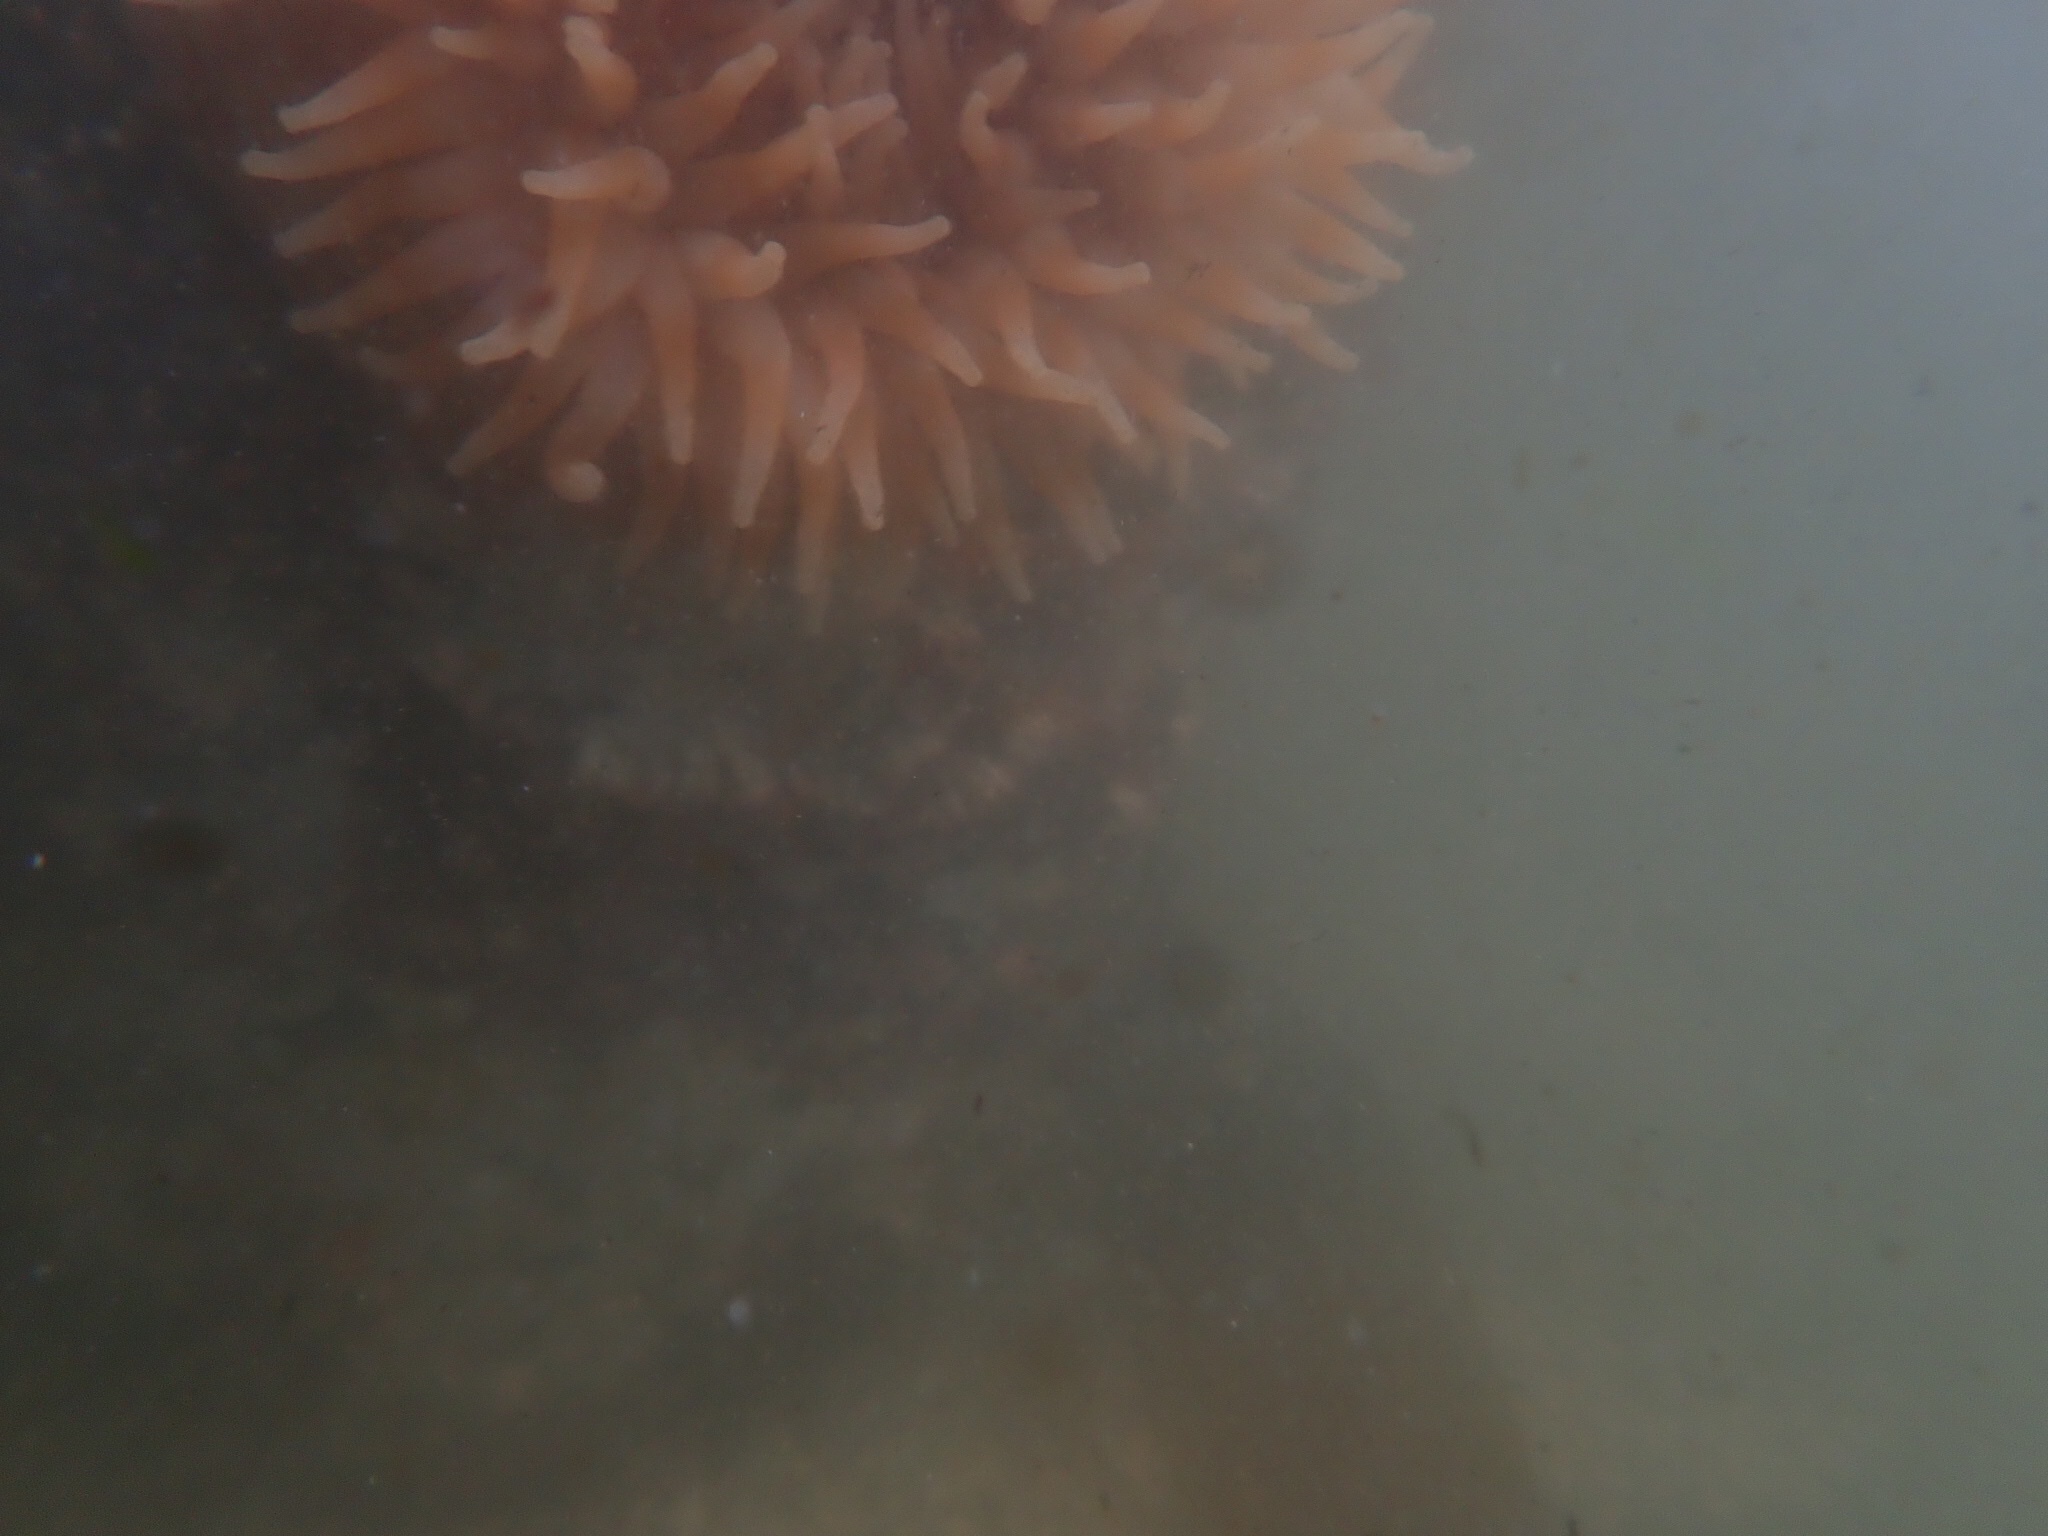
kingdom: Animalia
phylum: Cnidaria
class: Anthozoa
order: Actiniaria
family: Actiniidae
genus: Urticina
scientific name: Urticina grebelnyi
